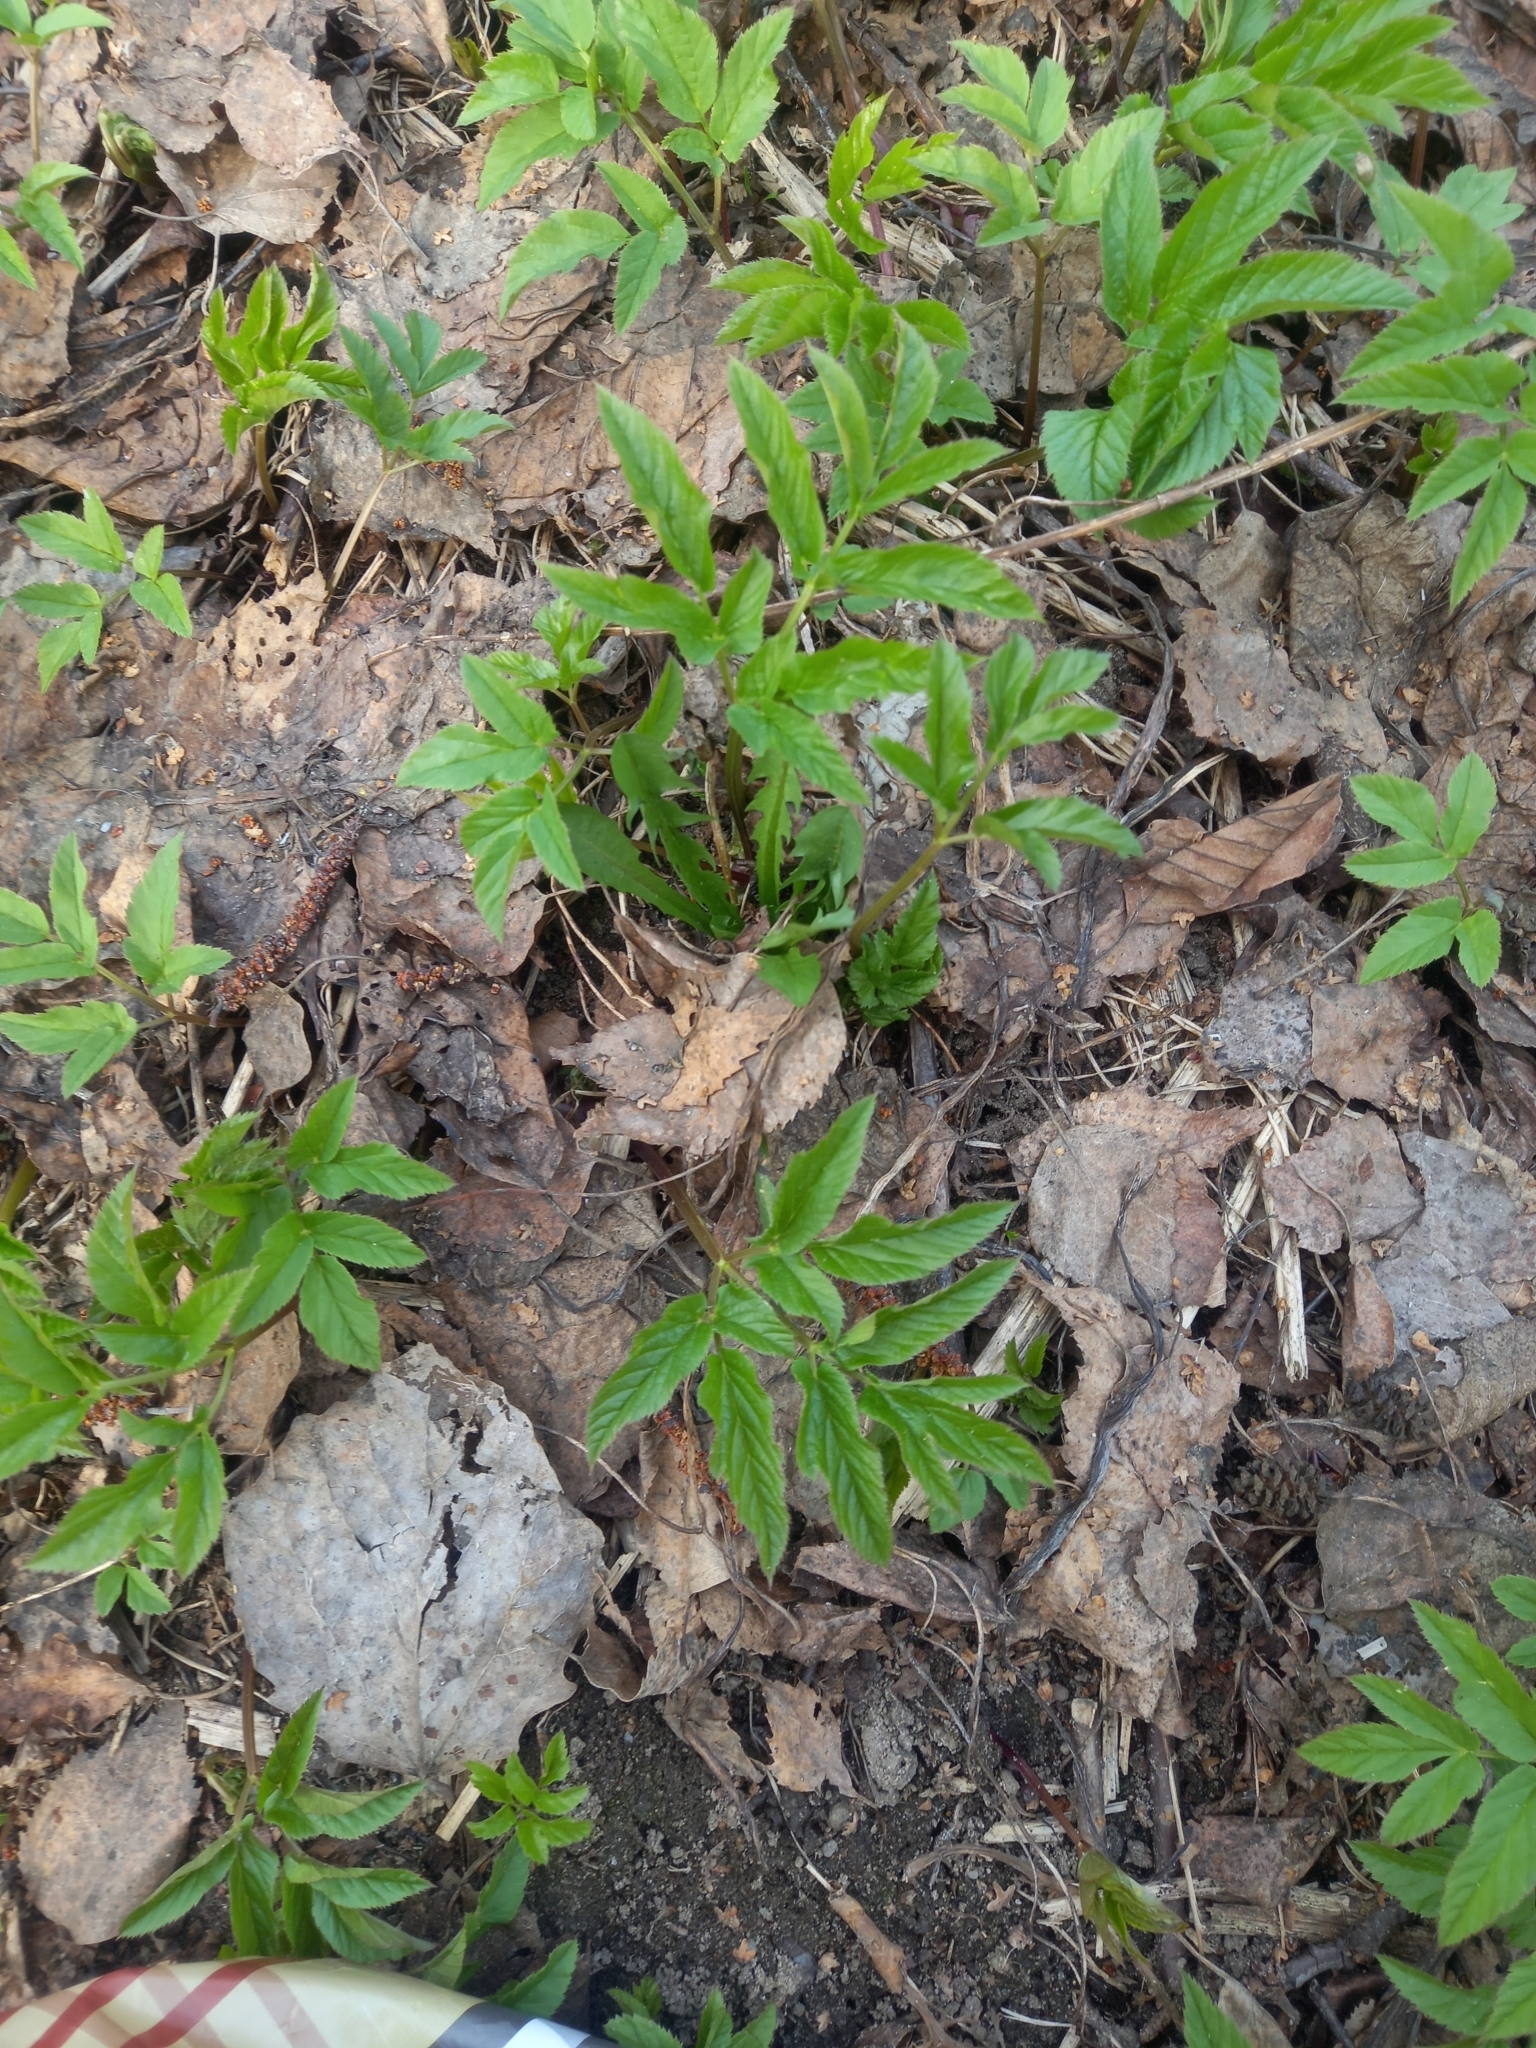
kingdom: Plantae
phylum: Tracheophyta
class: Magnoliopsida
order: Apiales
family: Apiaceae
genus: Aegopodium
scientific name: Aegopodium podagraria
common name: Ground-elder
